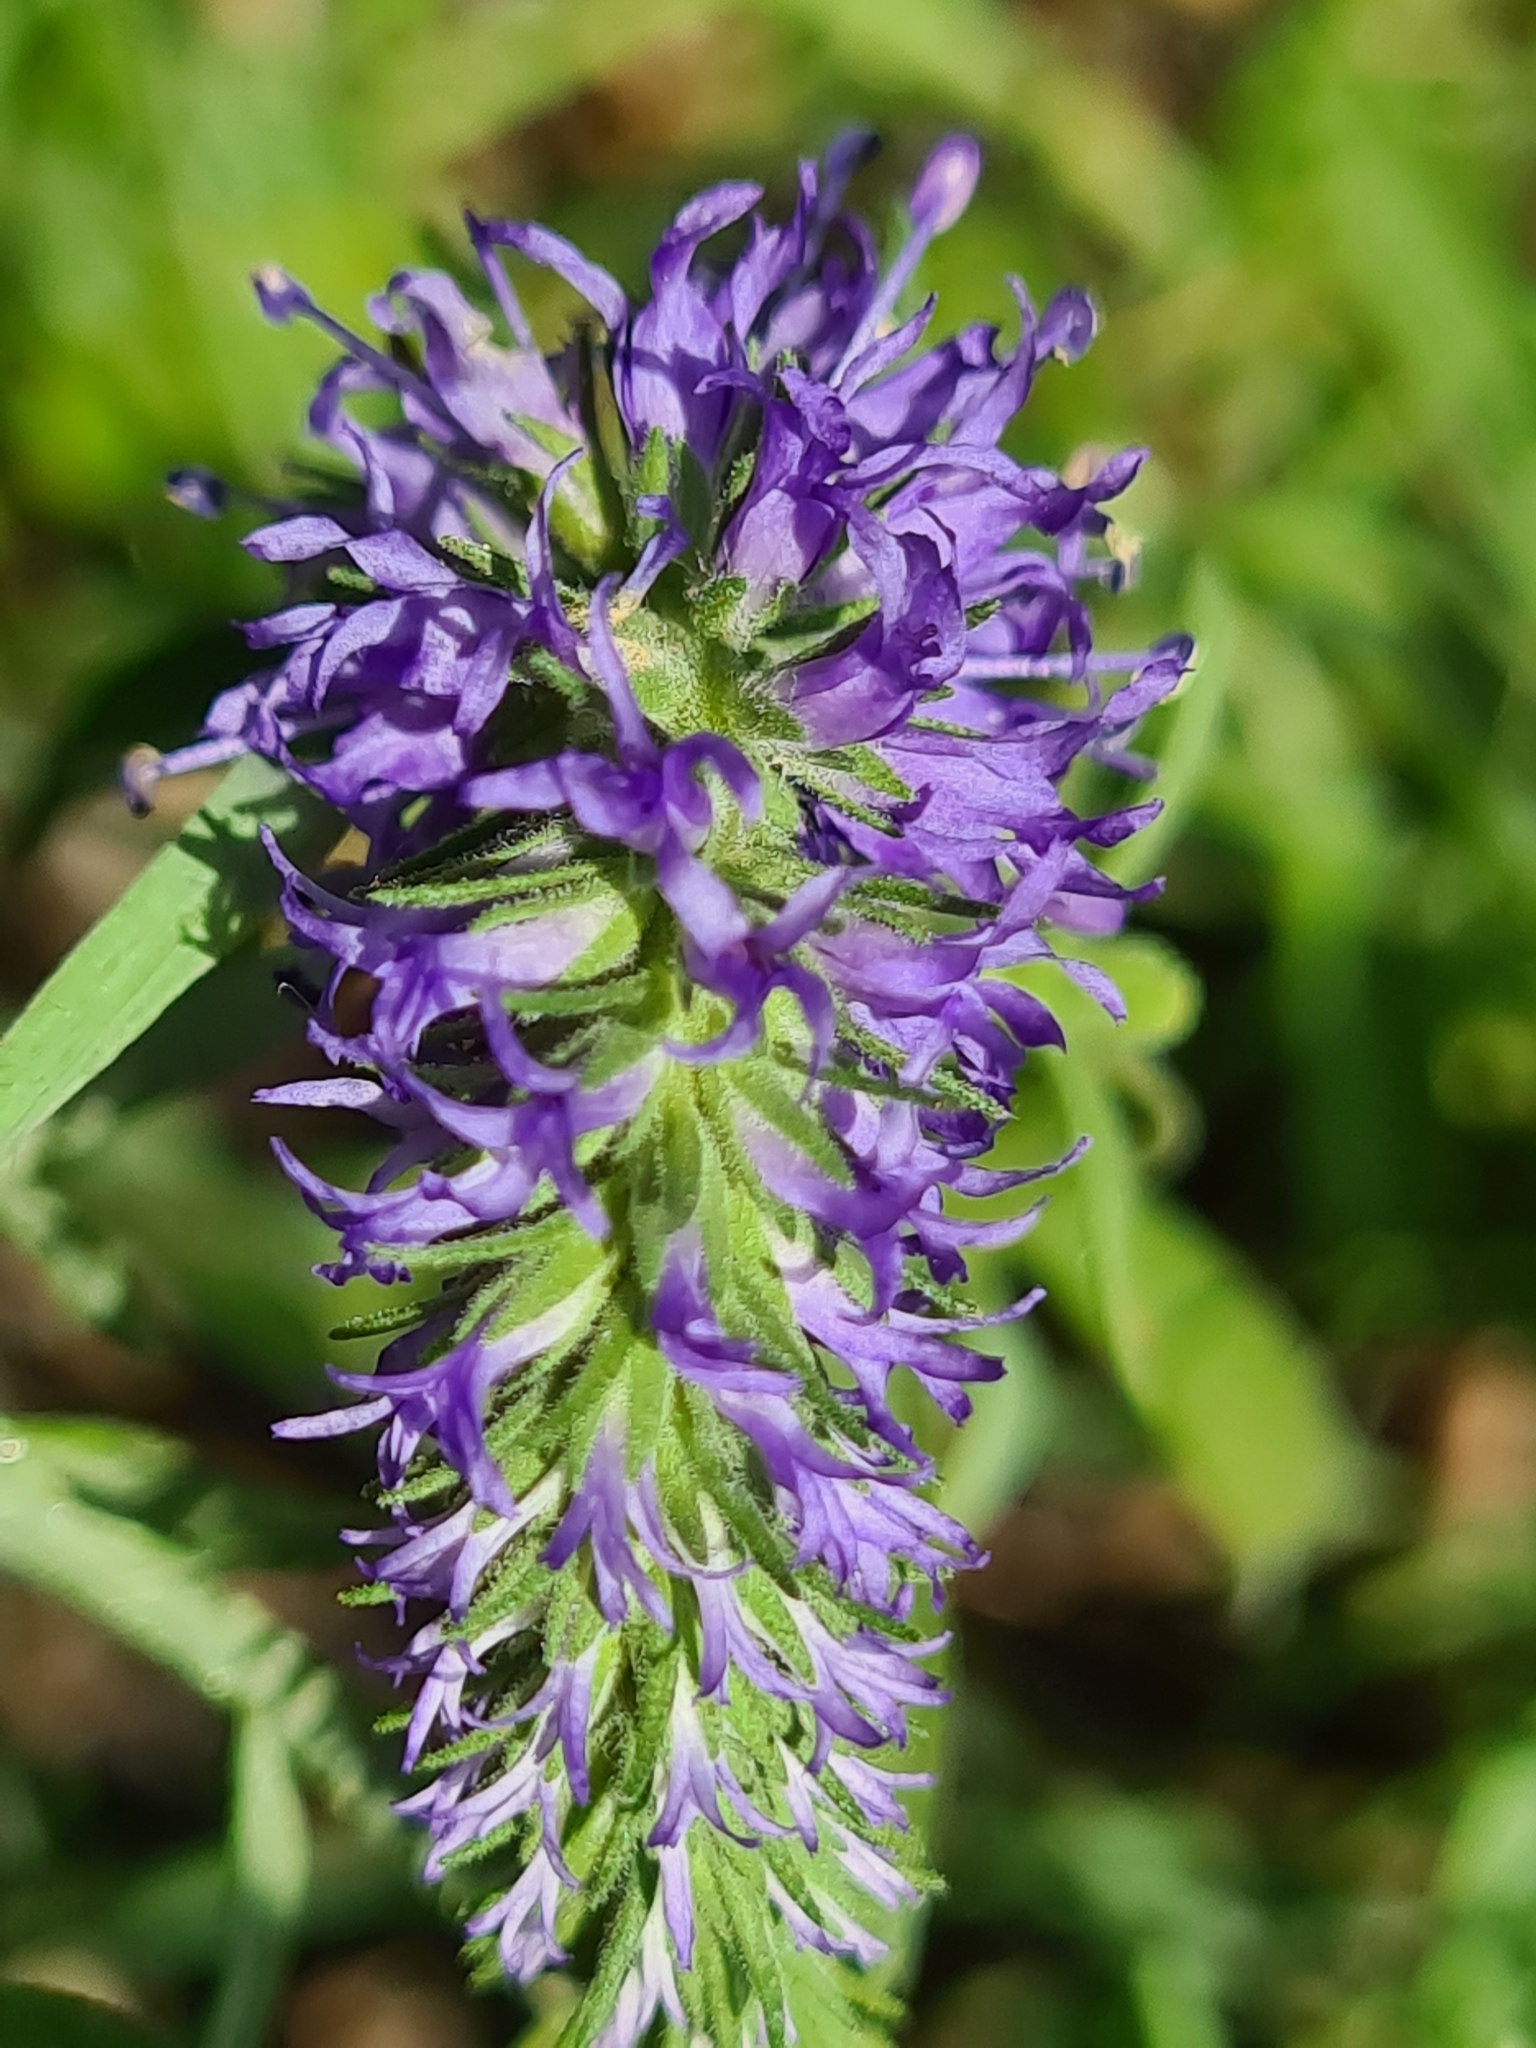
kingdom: Plantae
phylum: Tracheophyta
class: Magnoliopsida
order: Lamiales
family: Plantaginaceae
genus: Veronica
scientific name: Veronica spicata
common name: Spiked speedwell
